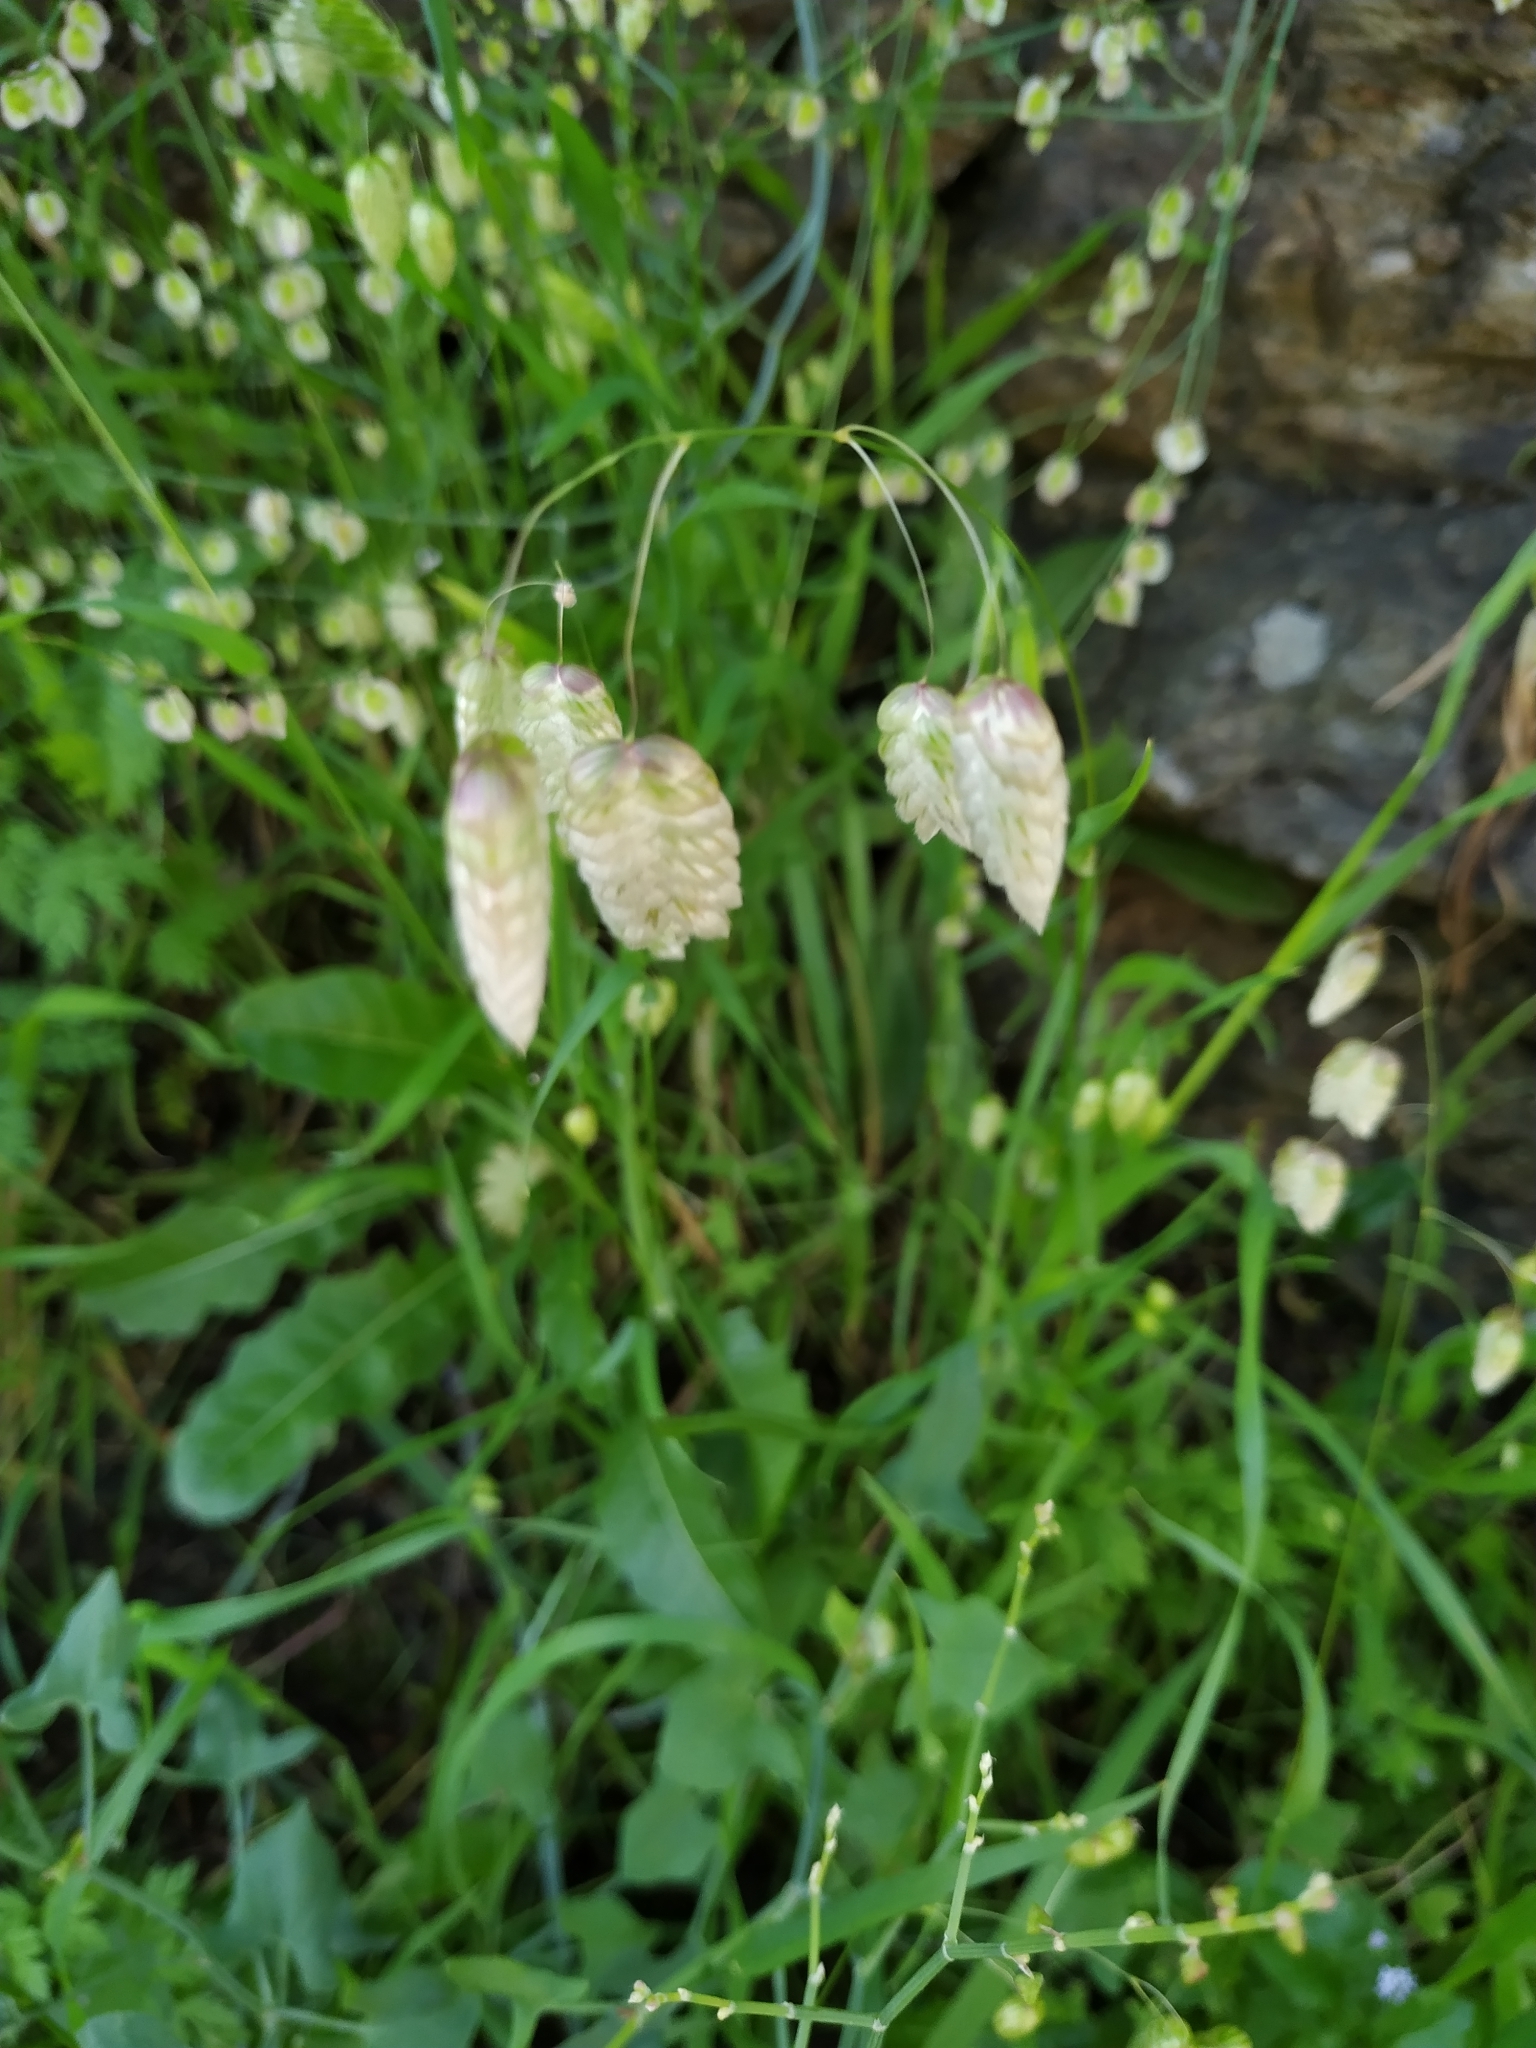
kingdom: Plantae
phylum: Tracheophyta
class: Liliopsida
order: Poales
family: Poaceae
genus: Briza
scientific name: Briza maxima
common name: Big quakinggrass
